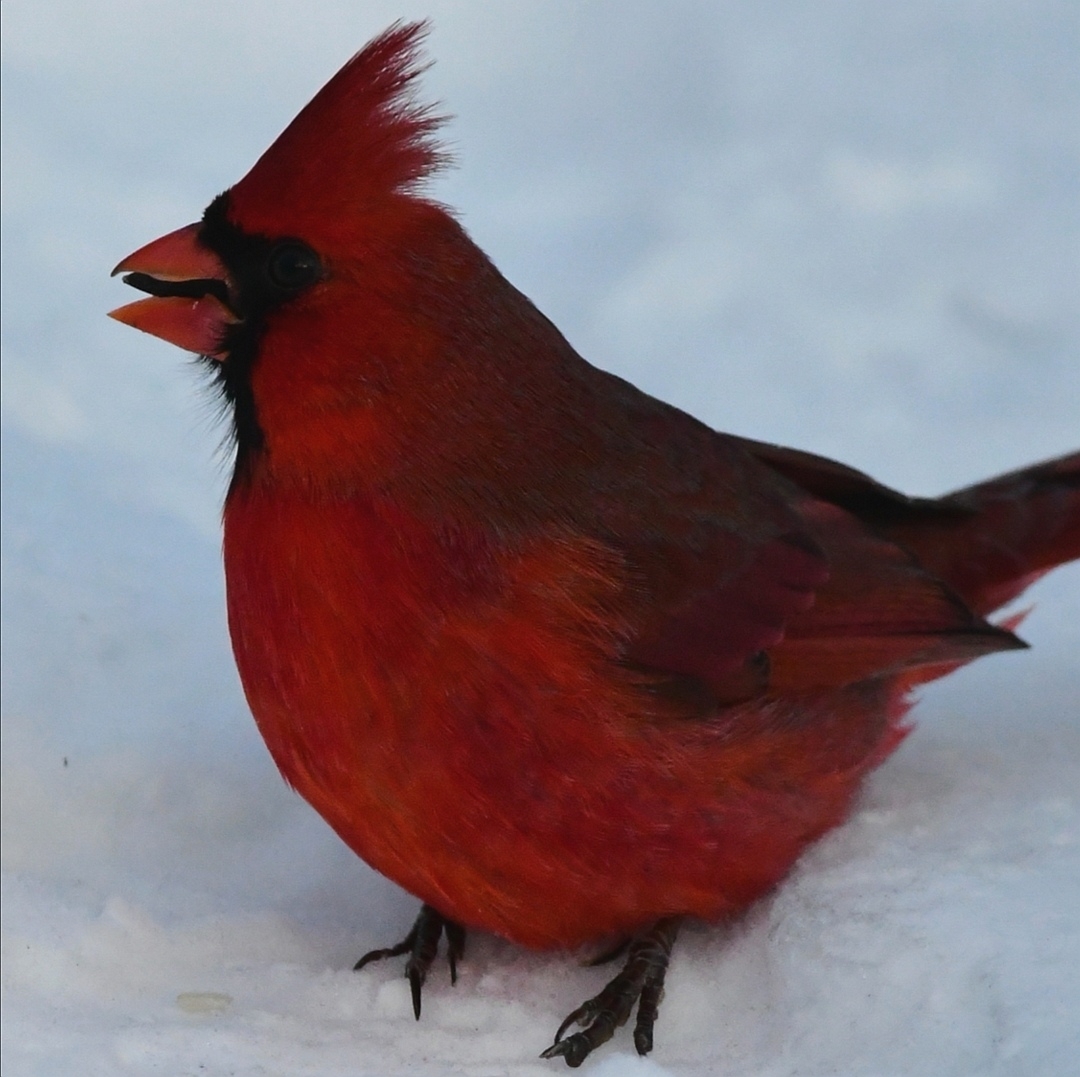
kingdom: Animalia
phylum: Chordata
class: Aves
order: Passeriformes
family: Cardinalidae
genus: Cardinalis
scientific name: Cardinalis cardinalis
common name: Northern cardinal
